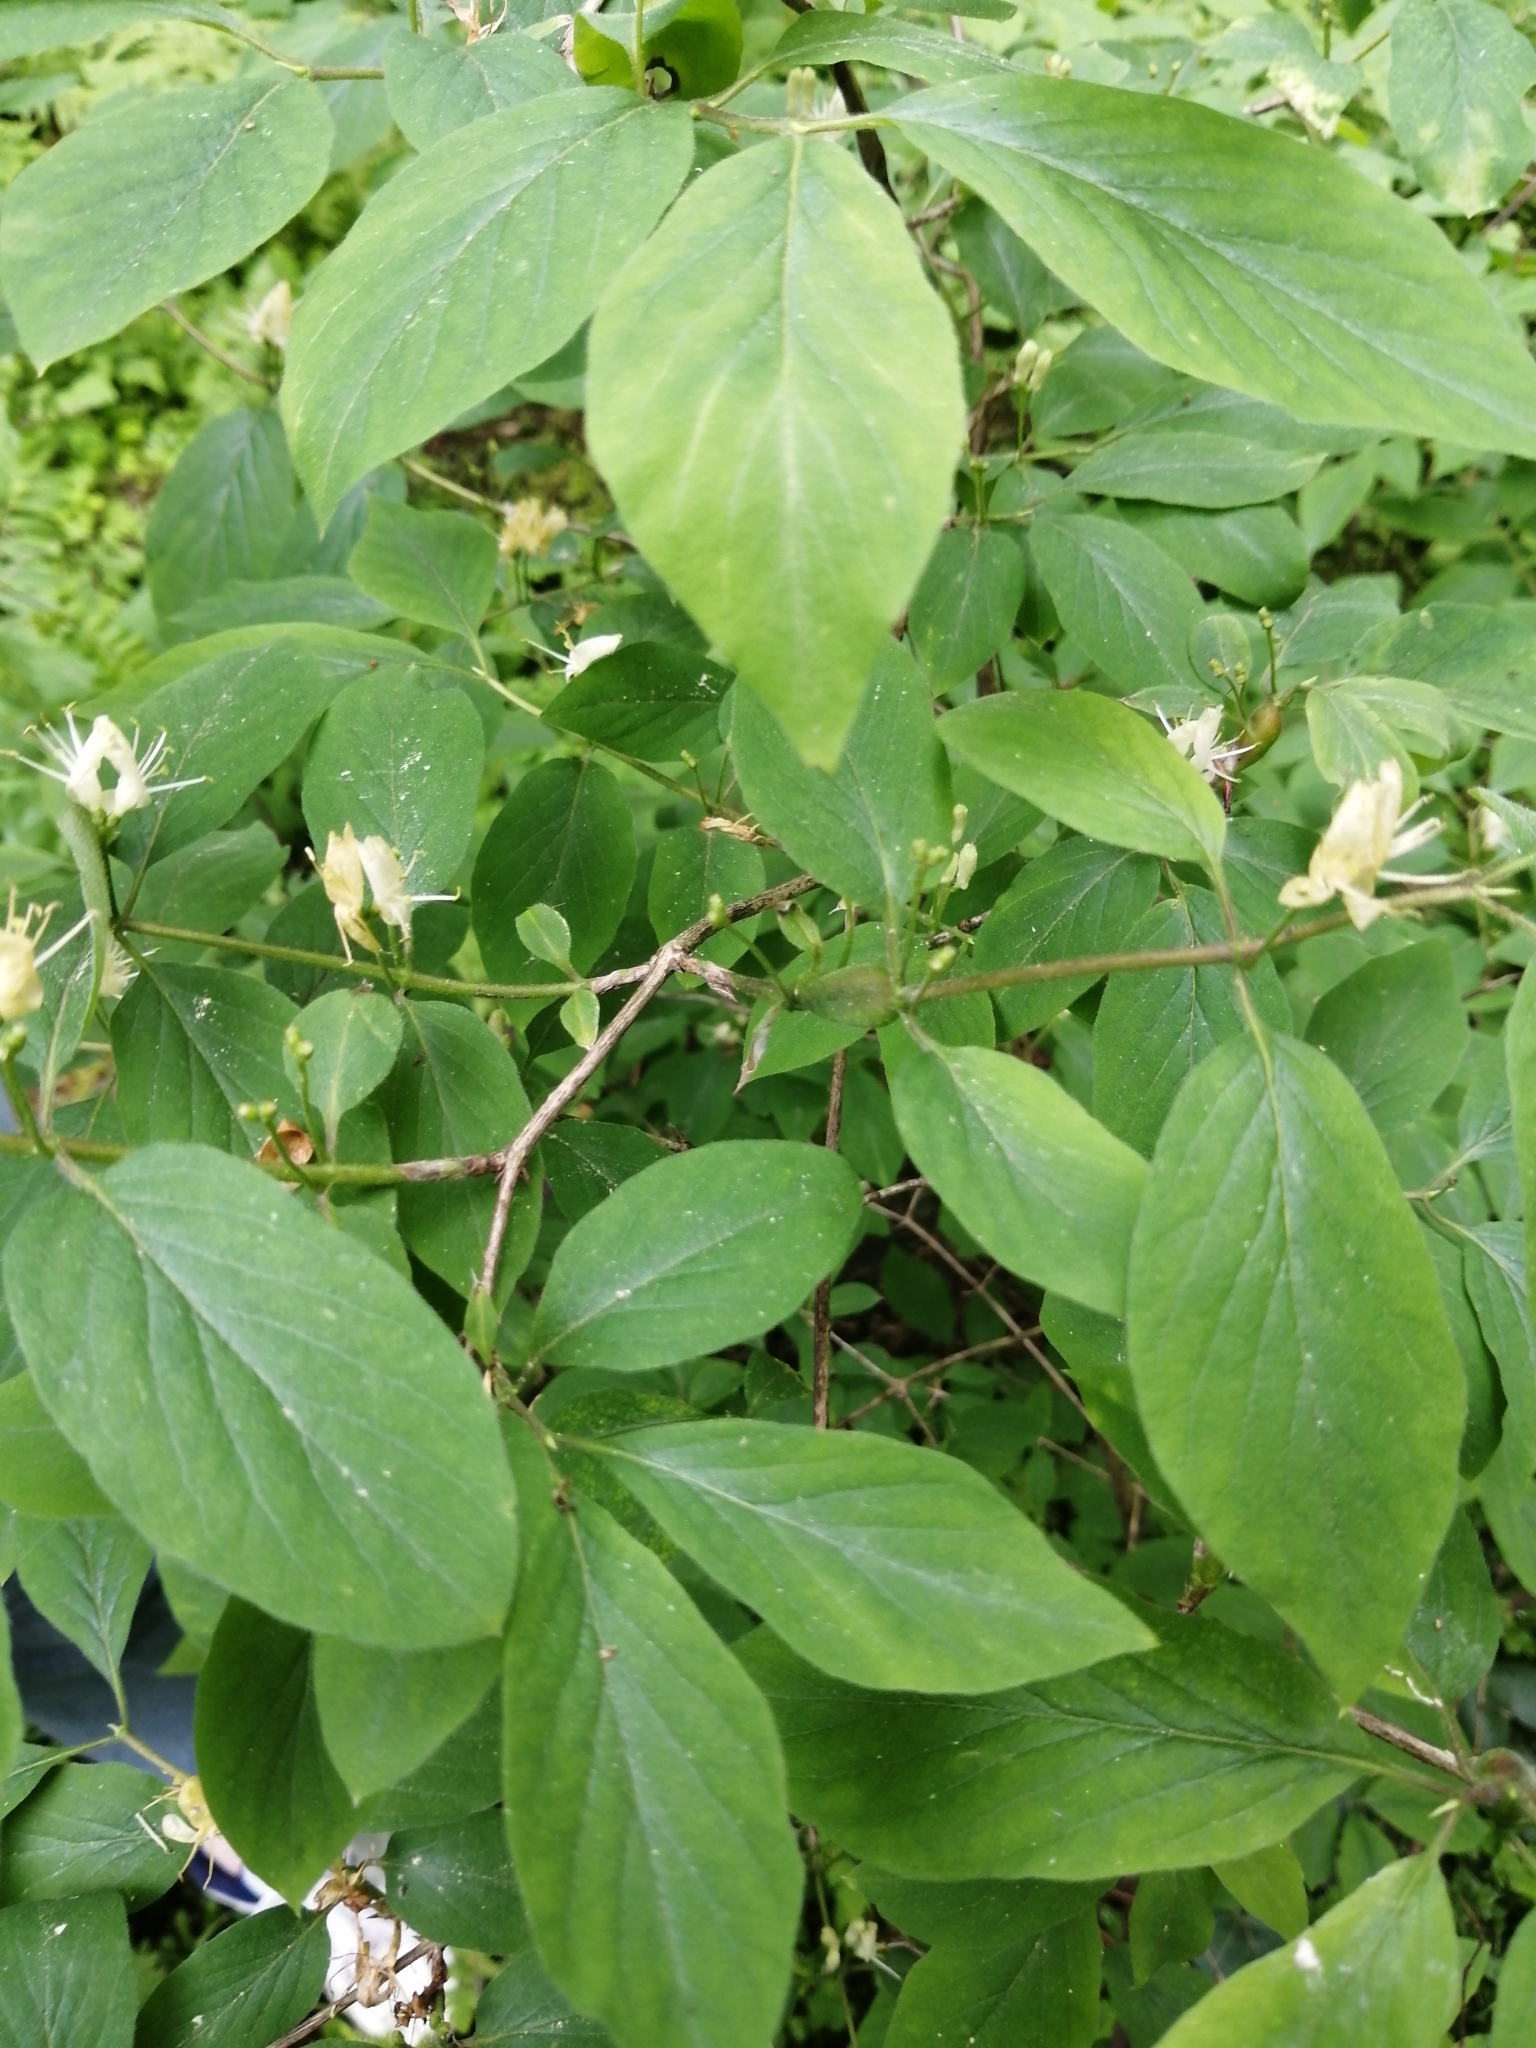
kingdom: Plantae
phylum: Tracheophyta
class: Magnoliopsida
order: Dipsacales
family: Caprifoliaceae
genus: Lonicera
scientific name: Lonicera xylosteum
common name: Fly honeysuckle
